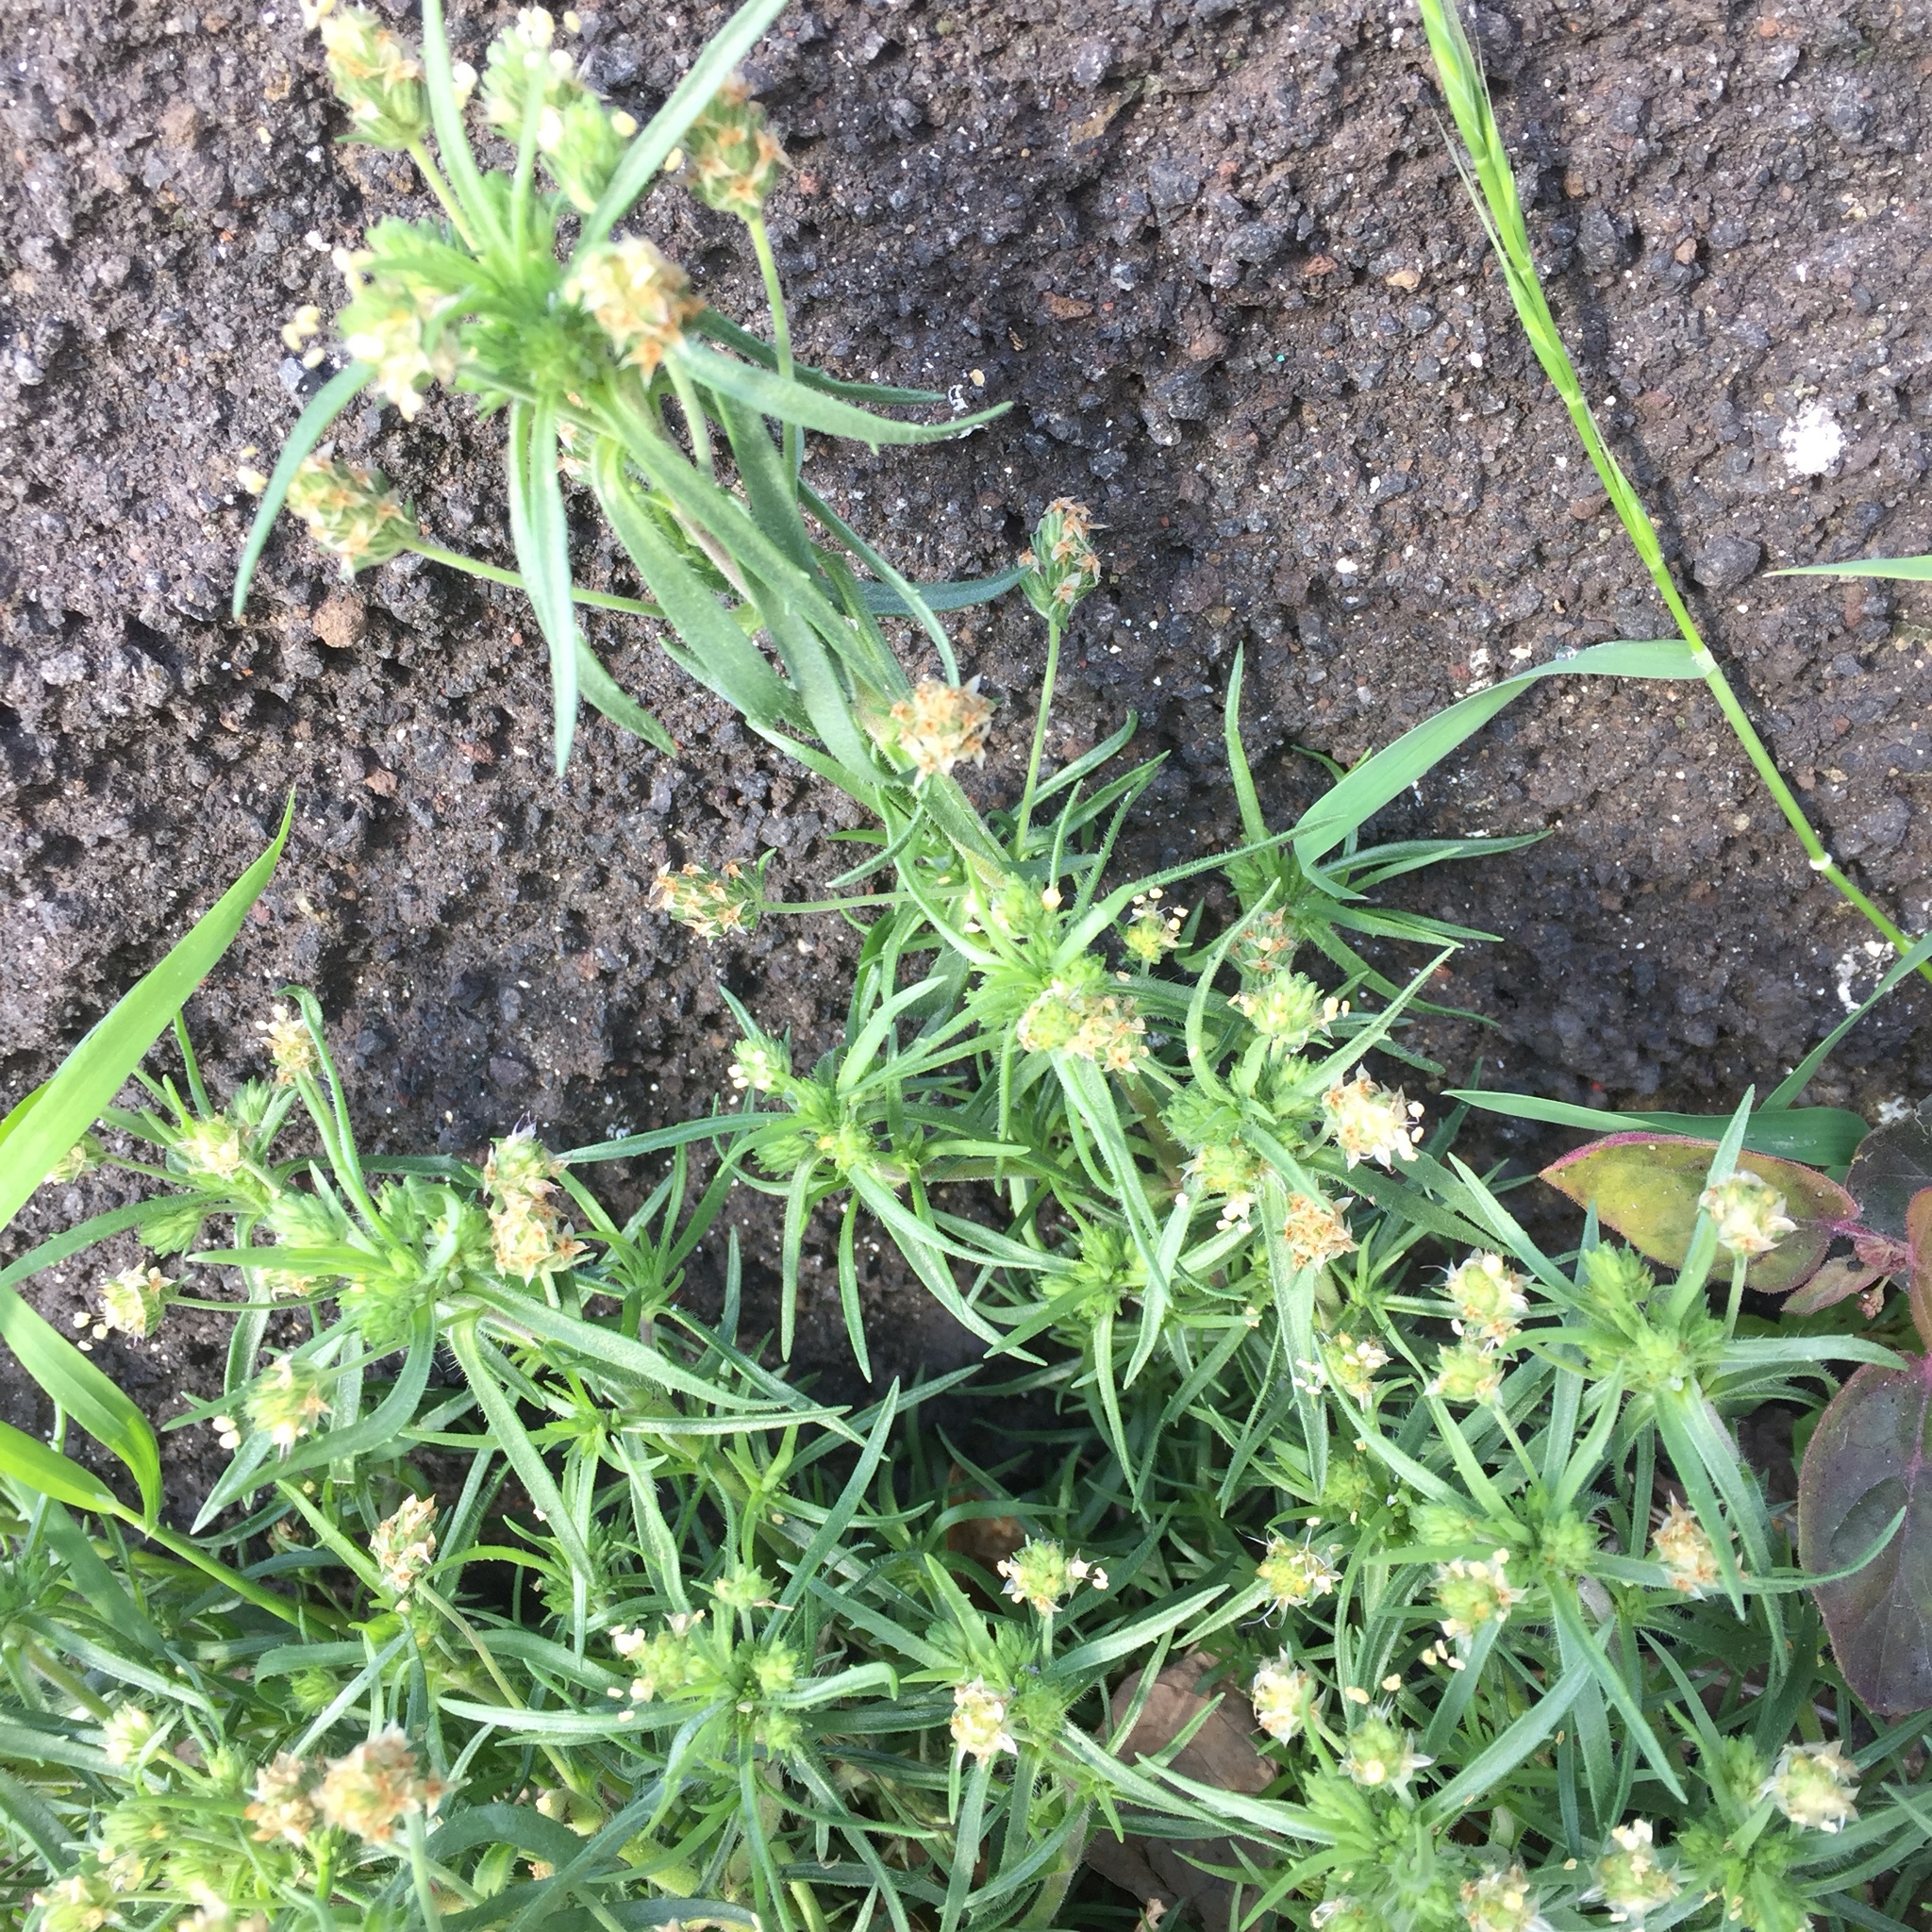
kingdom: Plantae
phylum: Tracheophyta
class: Magnoliopsida
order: Lamiales
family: Plantaginaceae
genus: Plantago
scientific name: Plantago arenaria
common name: Branched plantain
